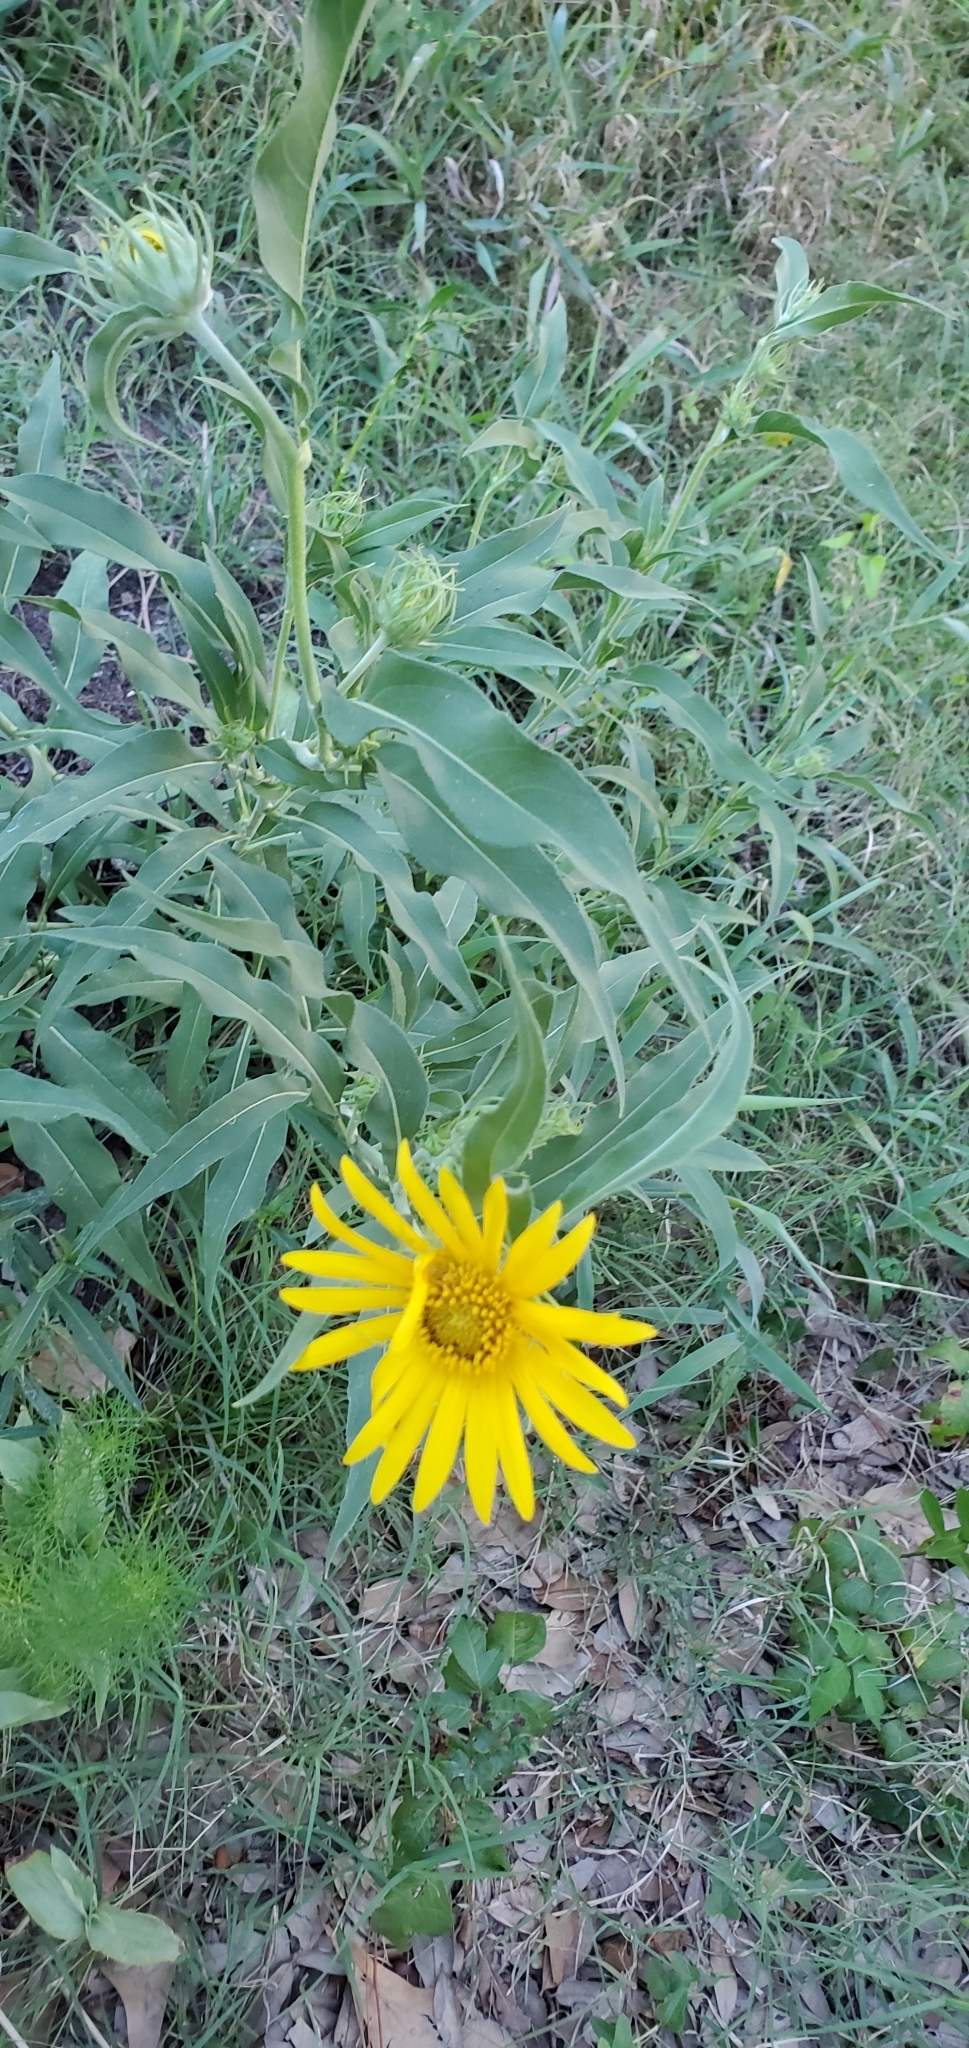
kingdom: Plantae
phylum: Tracheophyta
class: Magnoliopsida
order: Asterales
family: Asteraceae
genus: Helianthus
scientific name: Helianthus maximiliani
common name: Maximilian's sunflower
